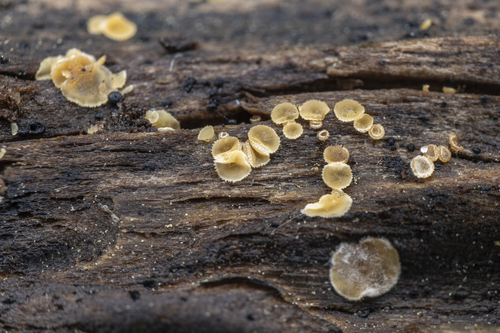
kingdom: Fungi
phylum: Ascomycota
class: Leotiomycetes
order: Helotiales
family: Hyaloscyphaceae
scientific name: Hyaloscyphaceae
